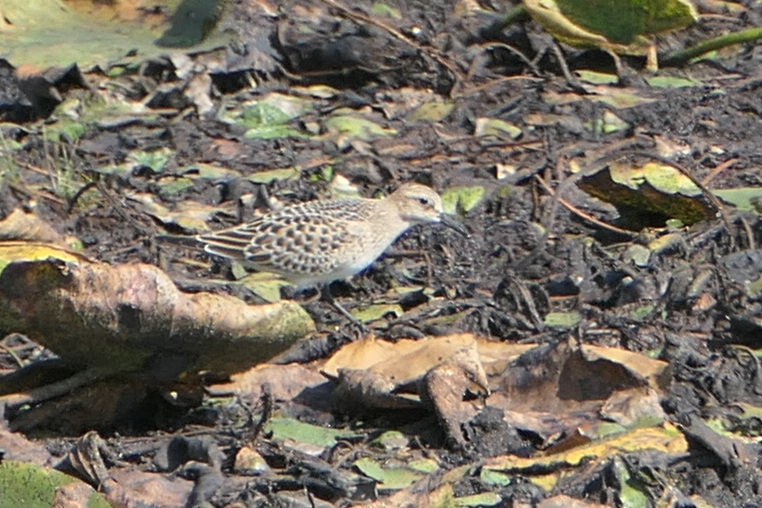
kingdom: Animalia
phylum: Chordata
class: Aves
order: Charadriiformes
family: Scolopacidae
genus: Calidris
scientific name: Calidris bairdii
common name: Baird's sandpiper
